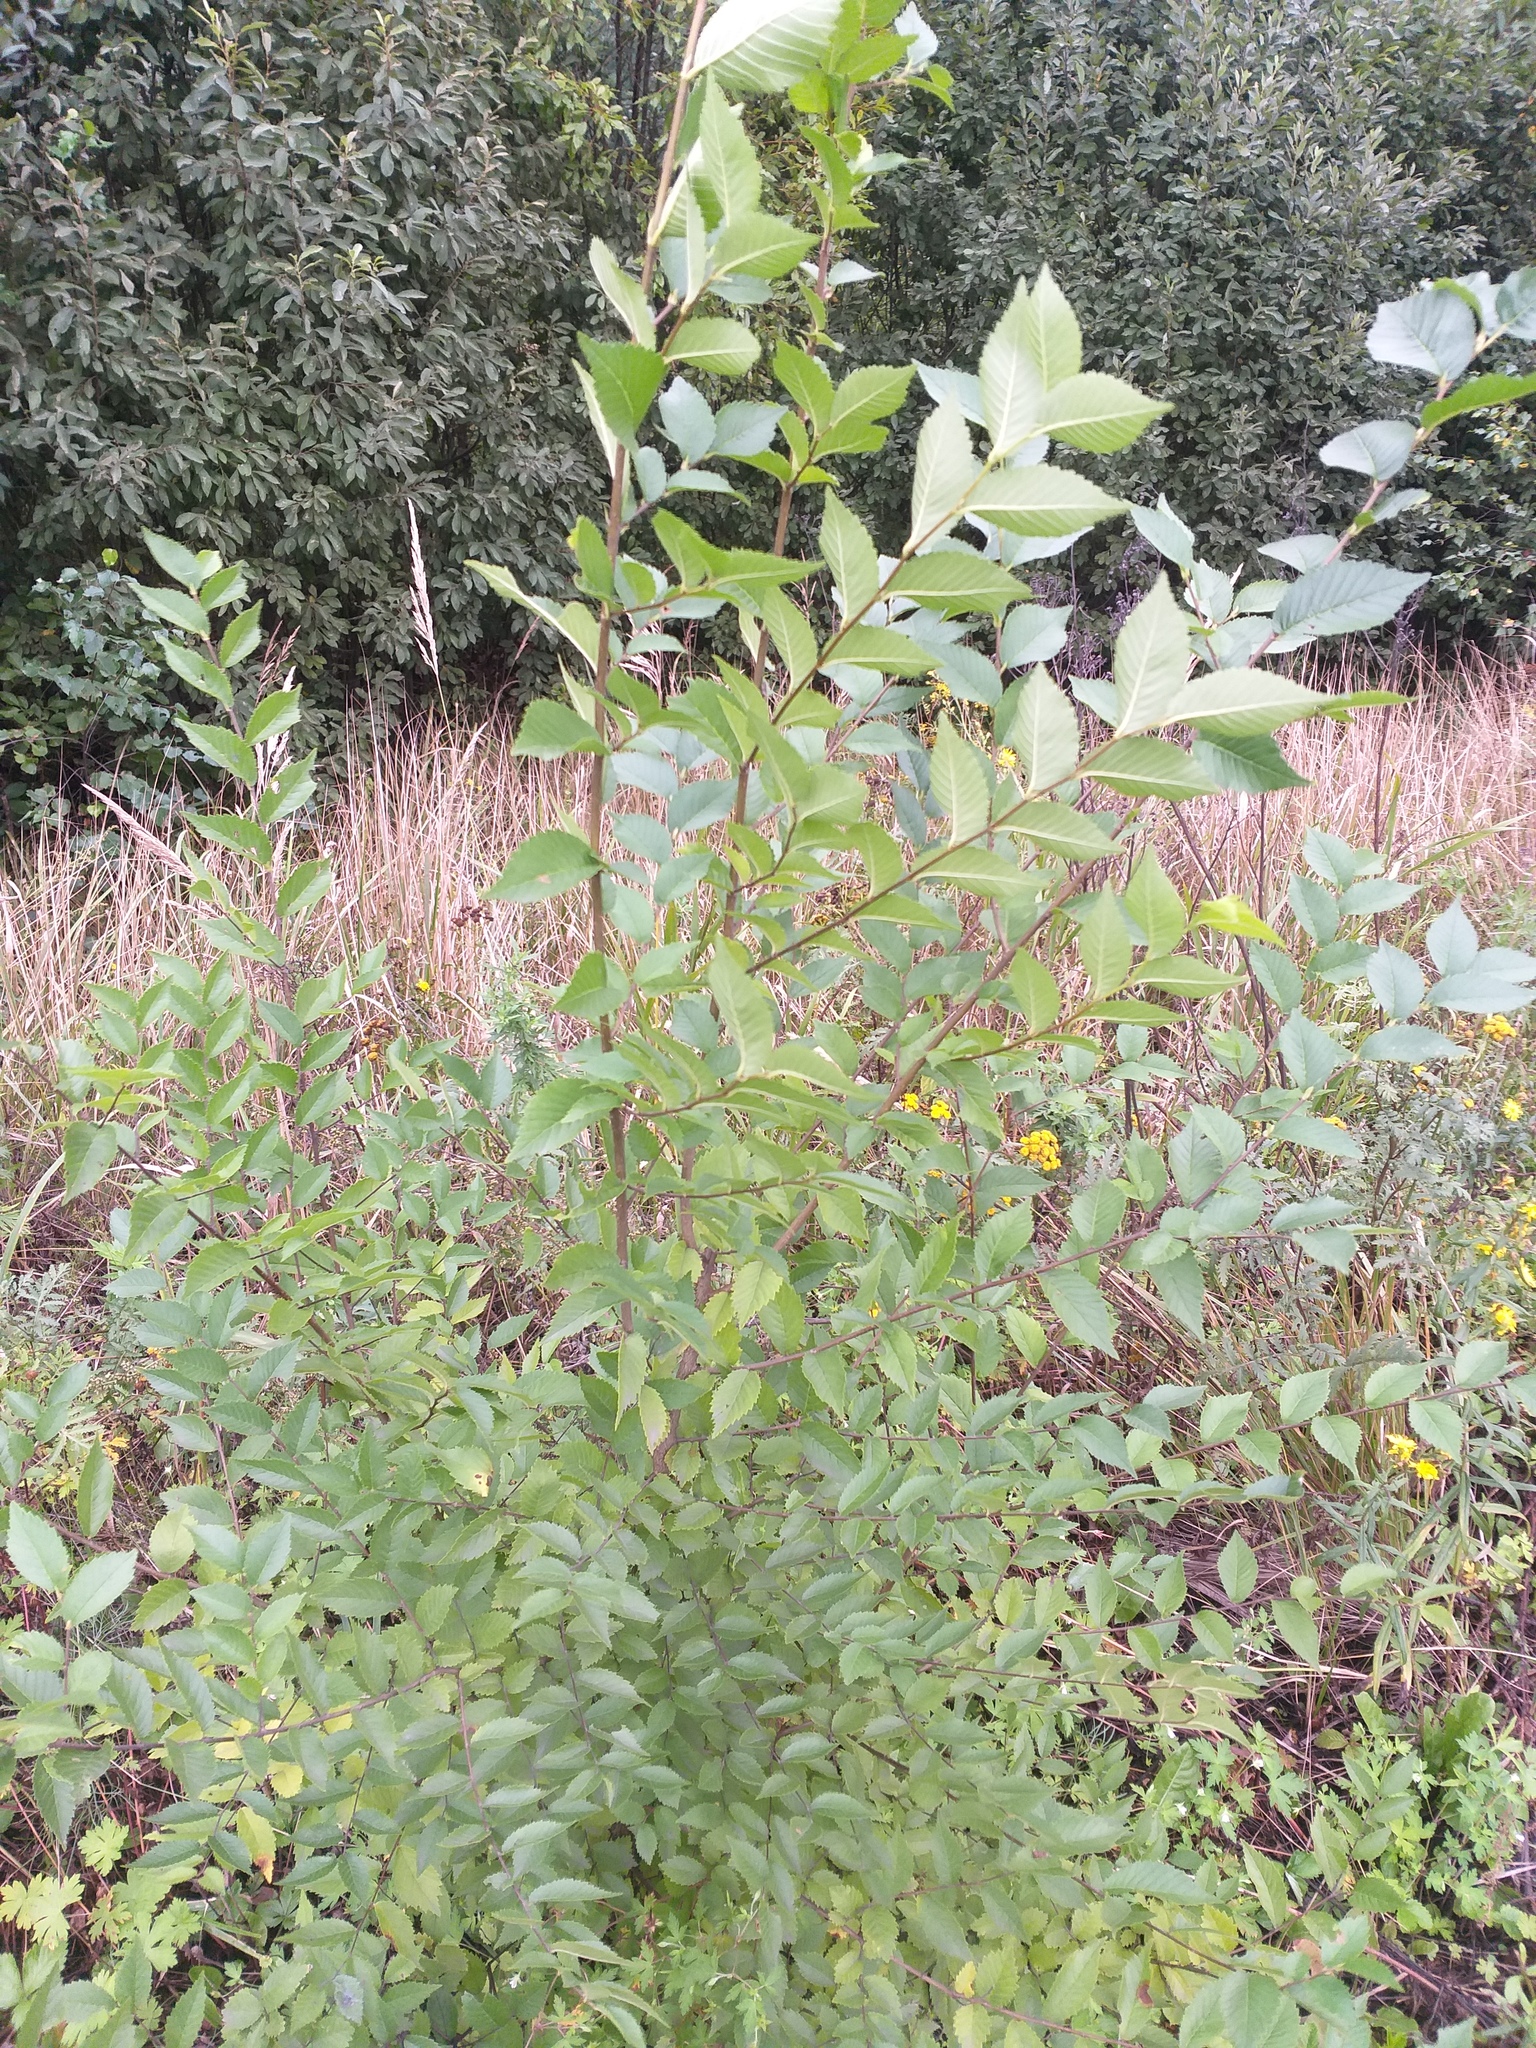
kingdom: Plantae
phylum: Tracheophyta
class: Magnoliopsida
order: Rosales
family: Ulmaceae
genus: Ulmus
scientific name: Ulmus pumila
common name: Siberian elm
